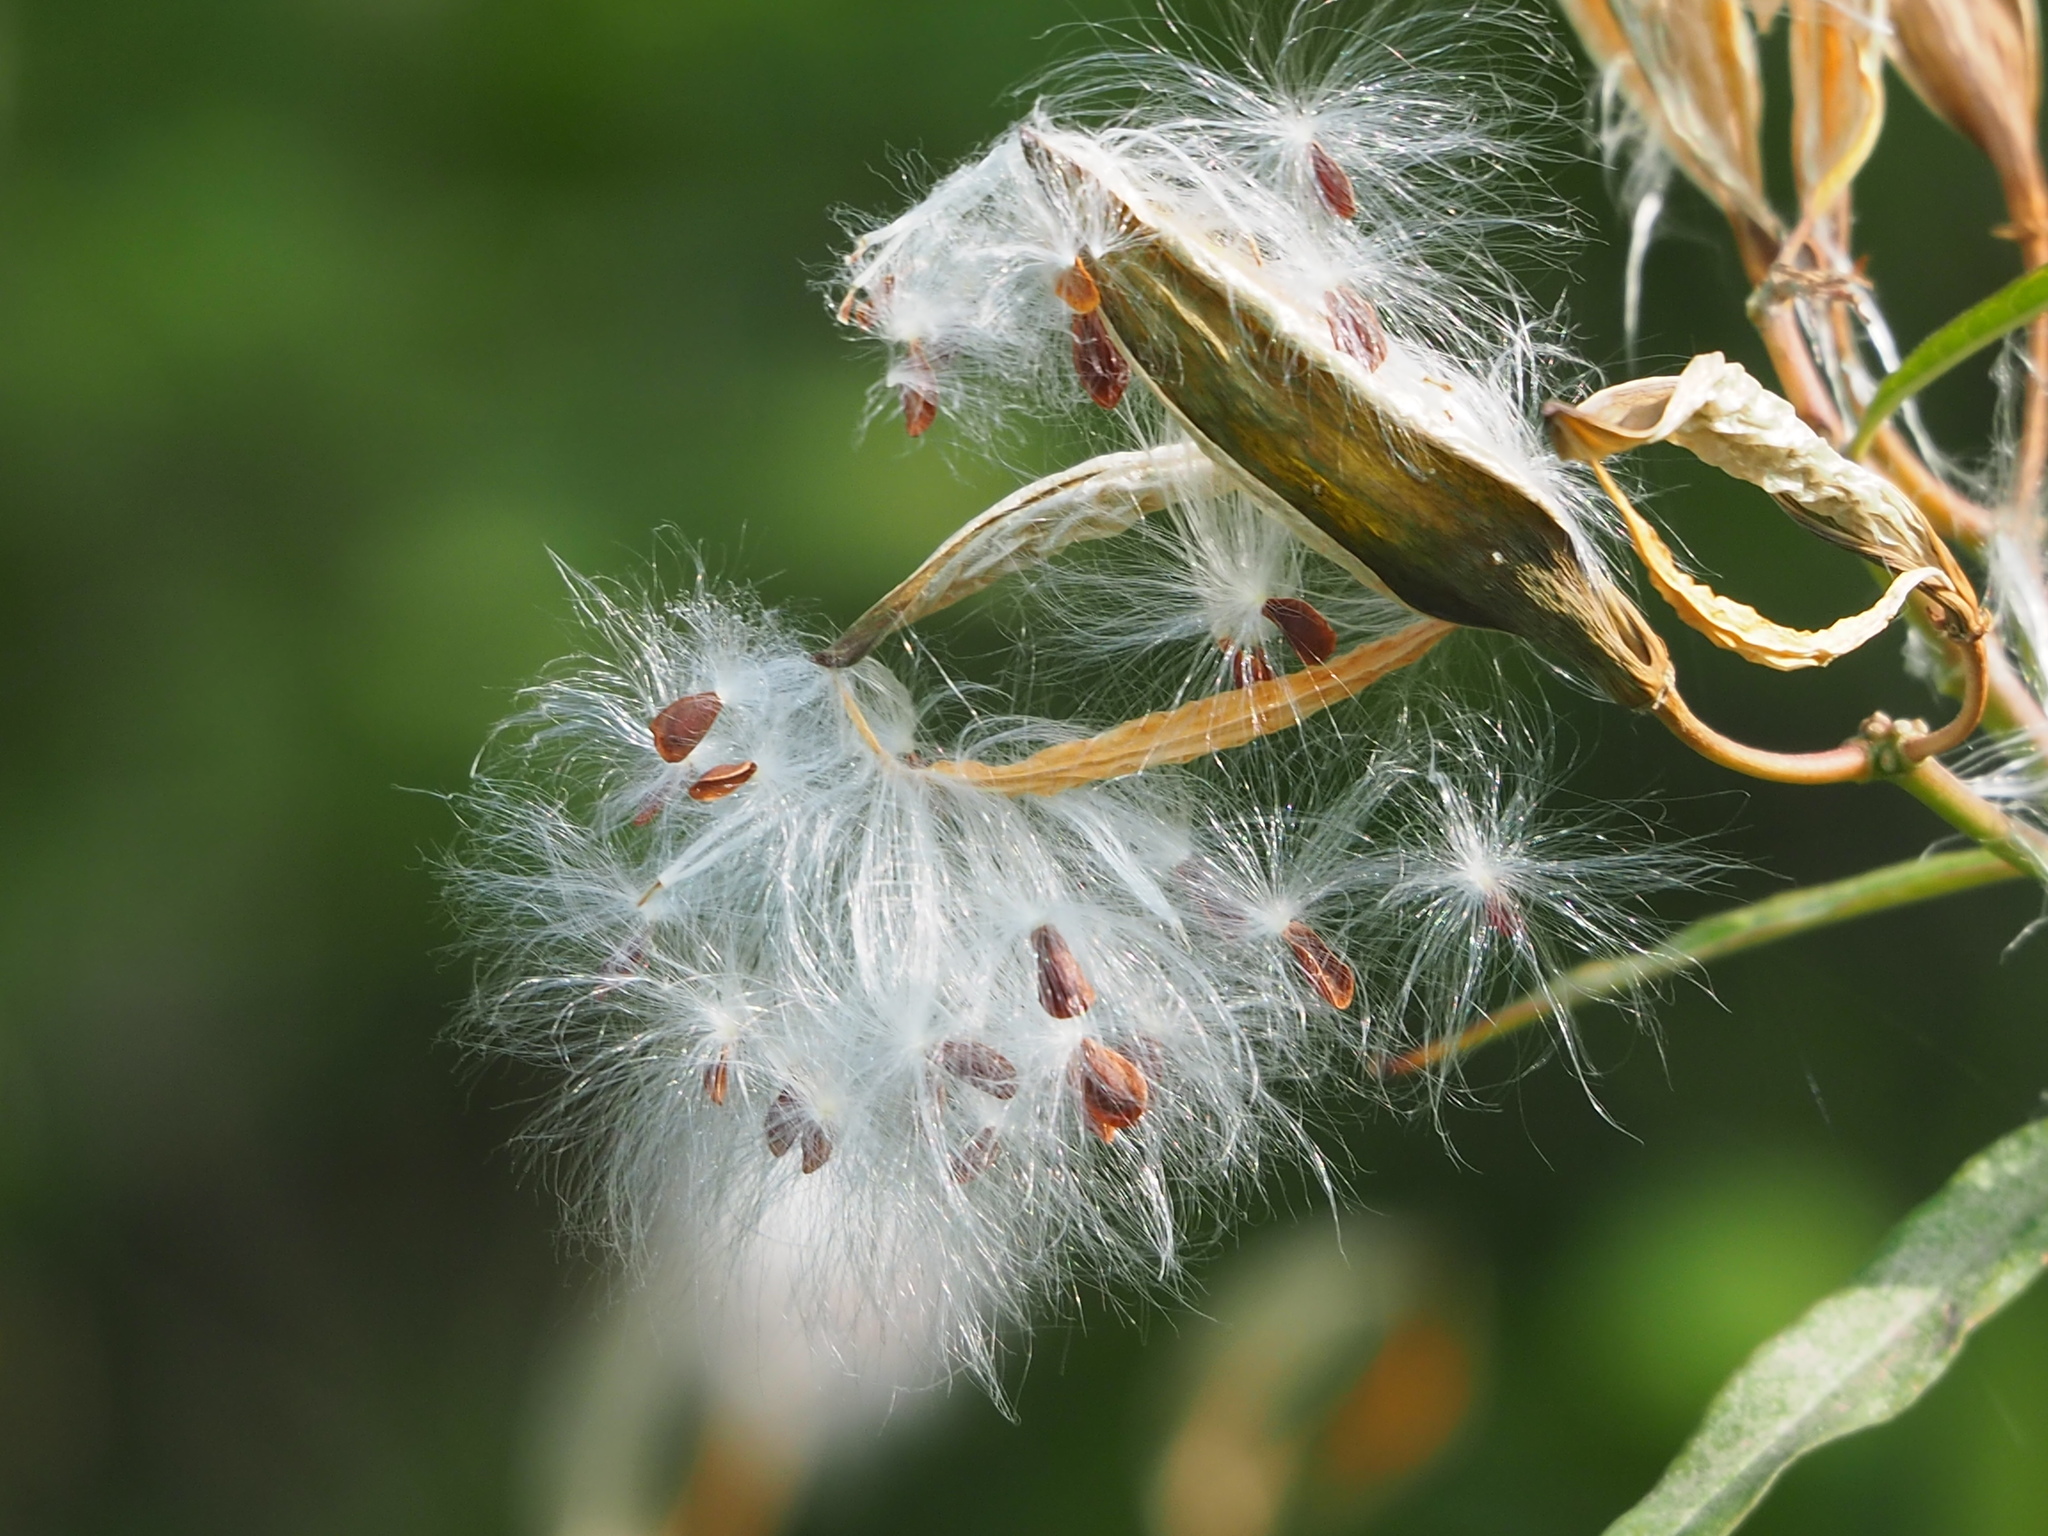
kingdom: Plantae
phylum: Tracheophyta
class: Magnoliopsida
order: Gentianales
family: Apocynaceae
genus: Asclepias
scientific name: Asclepias curassavica
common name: Bloodflower
